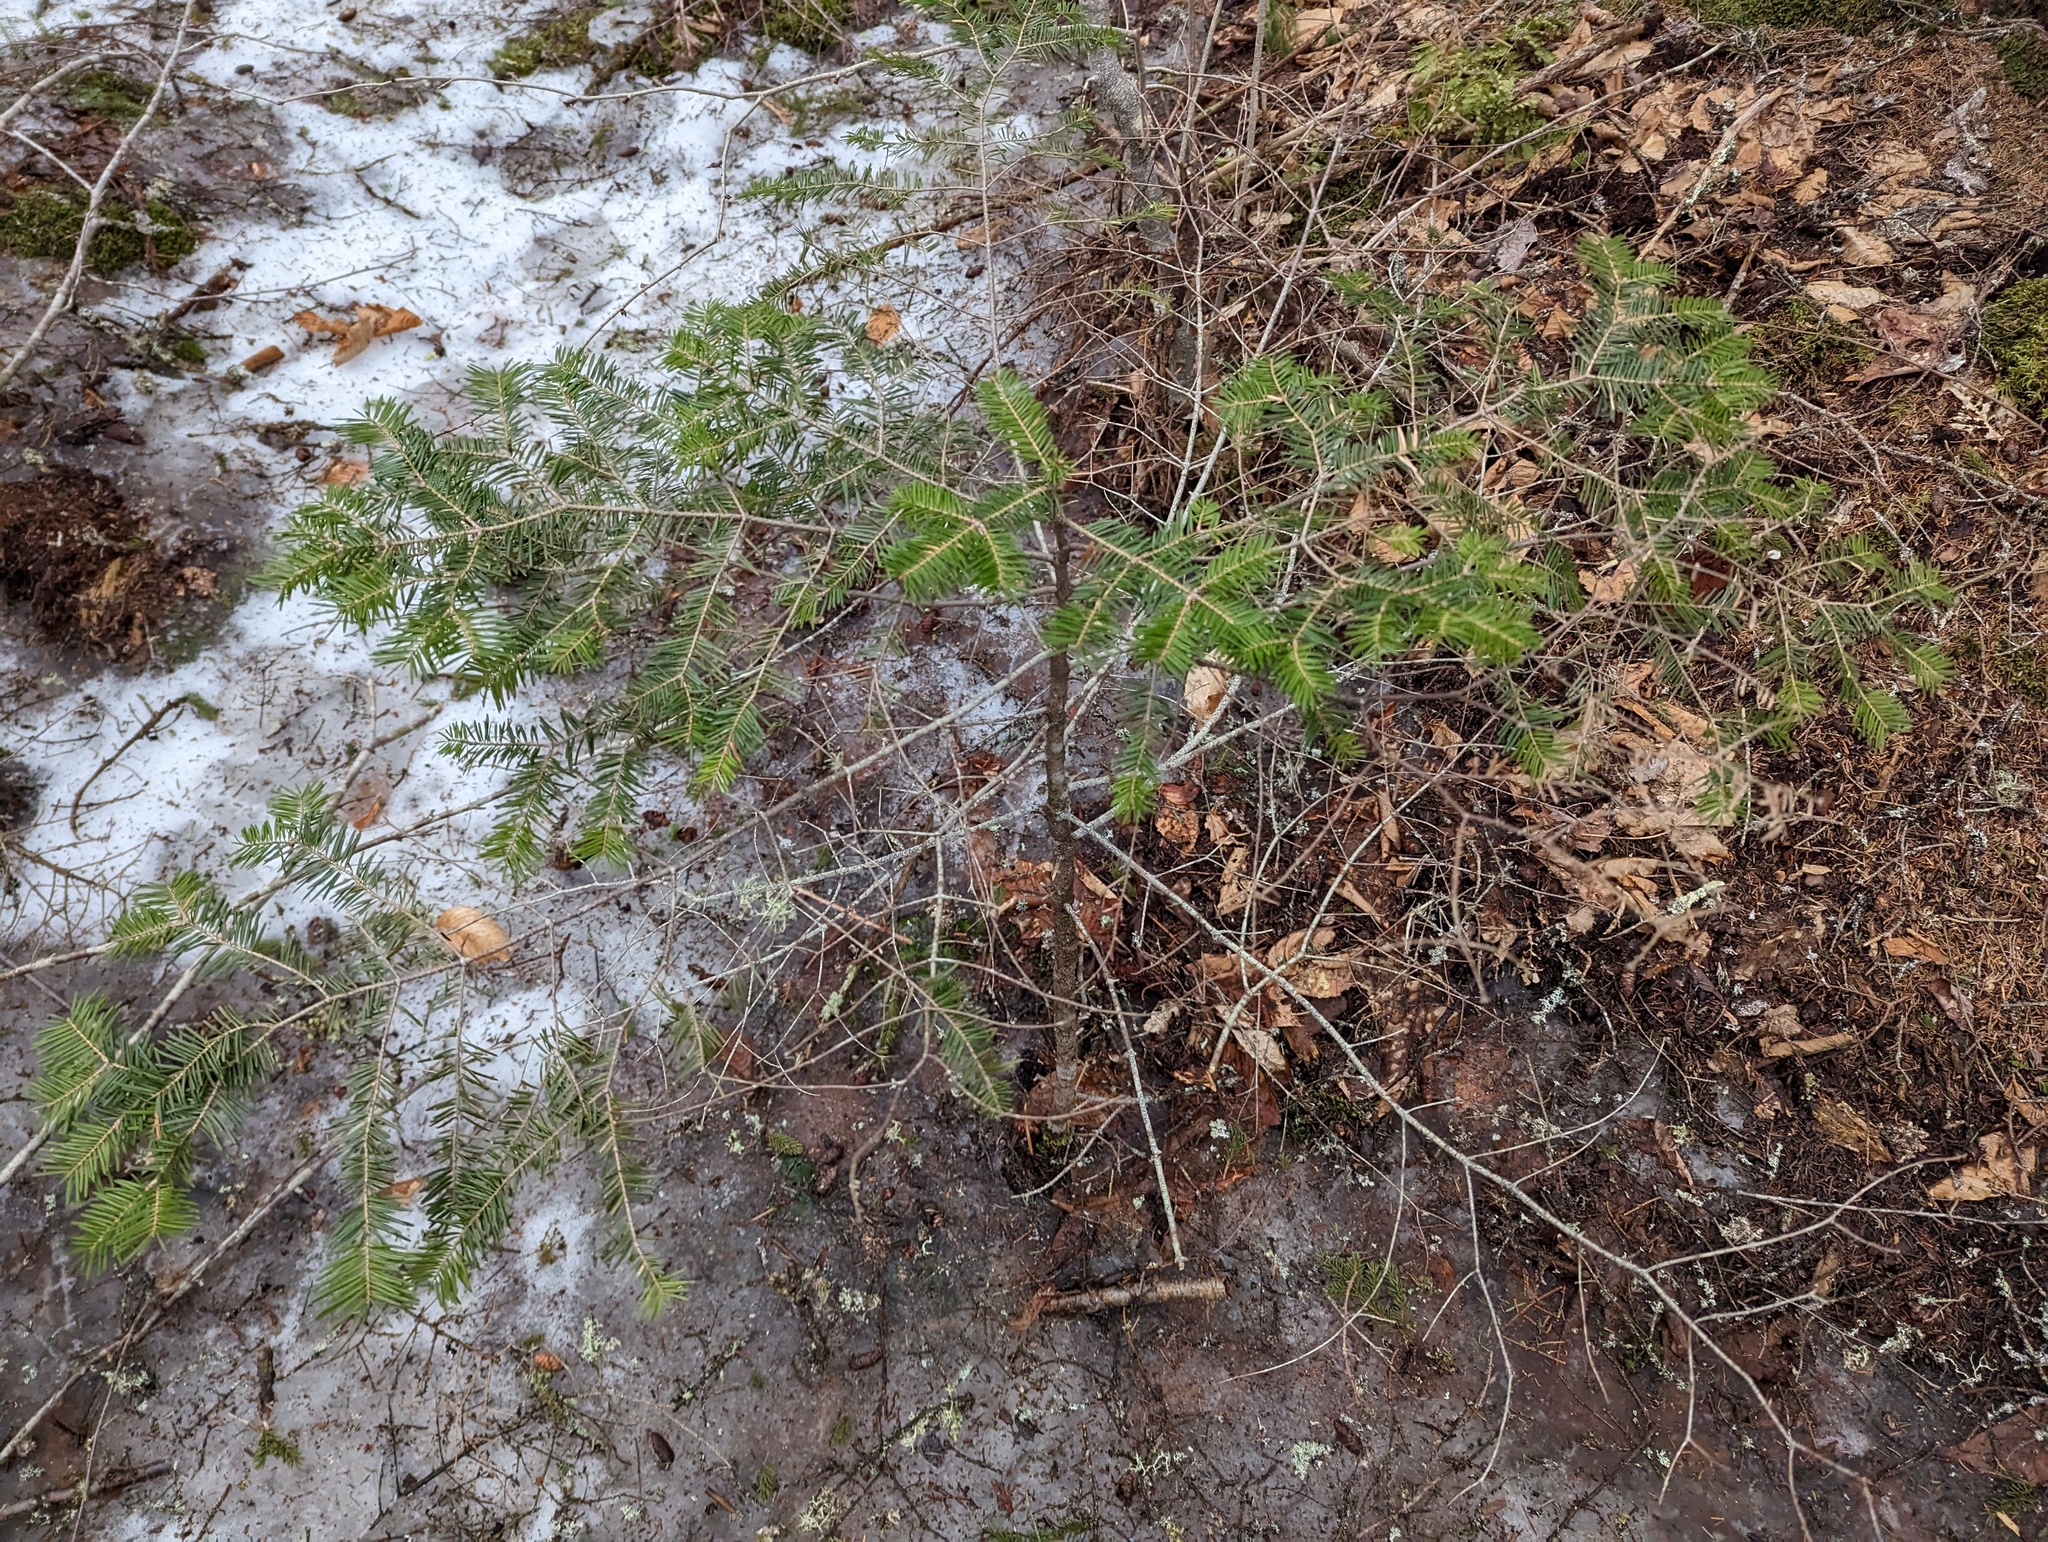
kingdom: Plantae
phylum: Tracheophyta
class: Pinopsida
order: Pinales
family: Pinaceae
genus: Abies
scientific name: Abies balsamea
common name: Balsam fir
